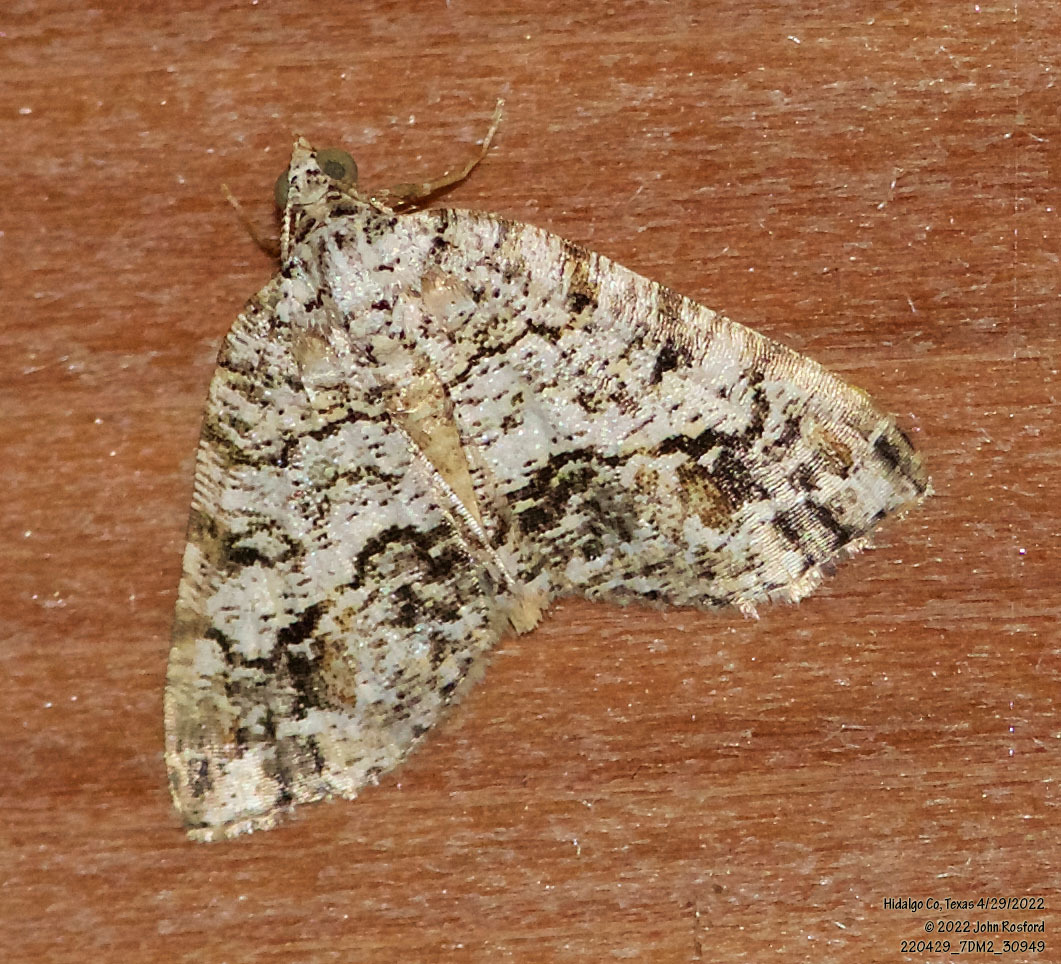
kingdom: Animalia
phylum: Arthropoda
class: Insecta
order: Lepidoptera
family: Geometridae
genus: Macaria
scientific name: Macaria graphidaria
